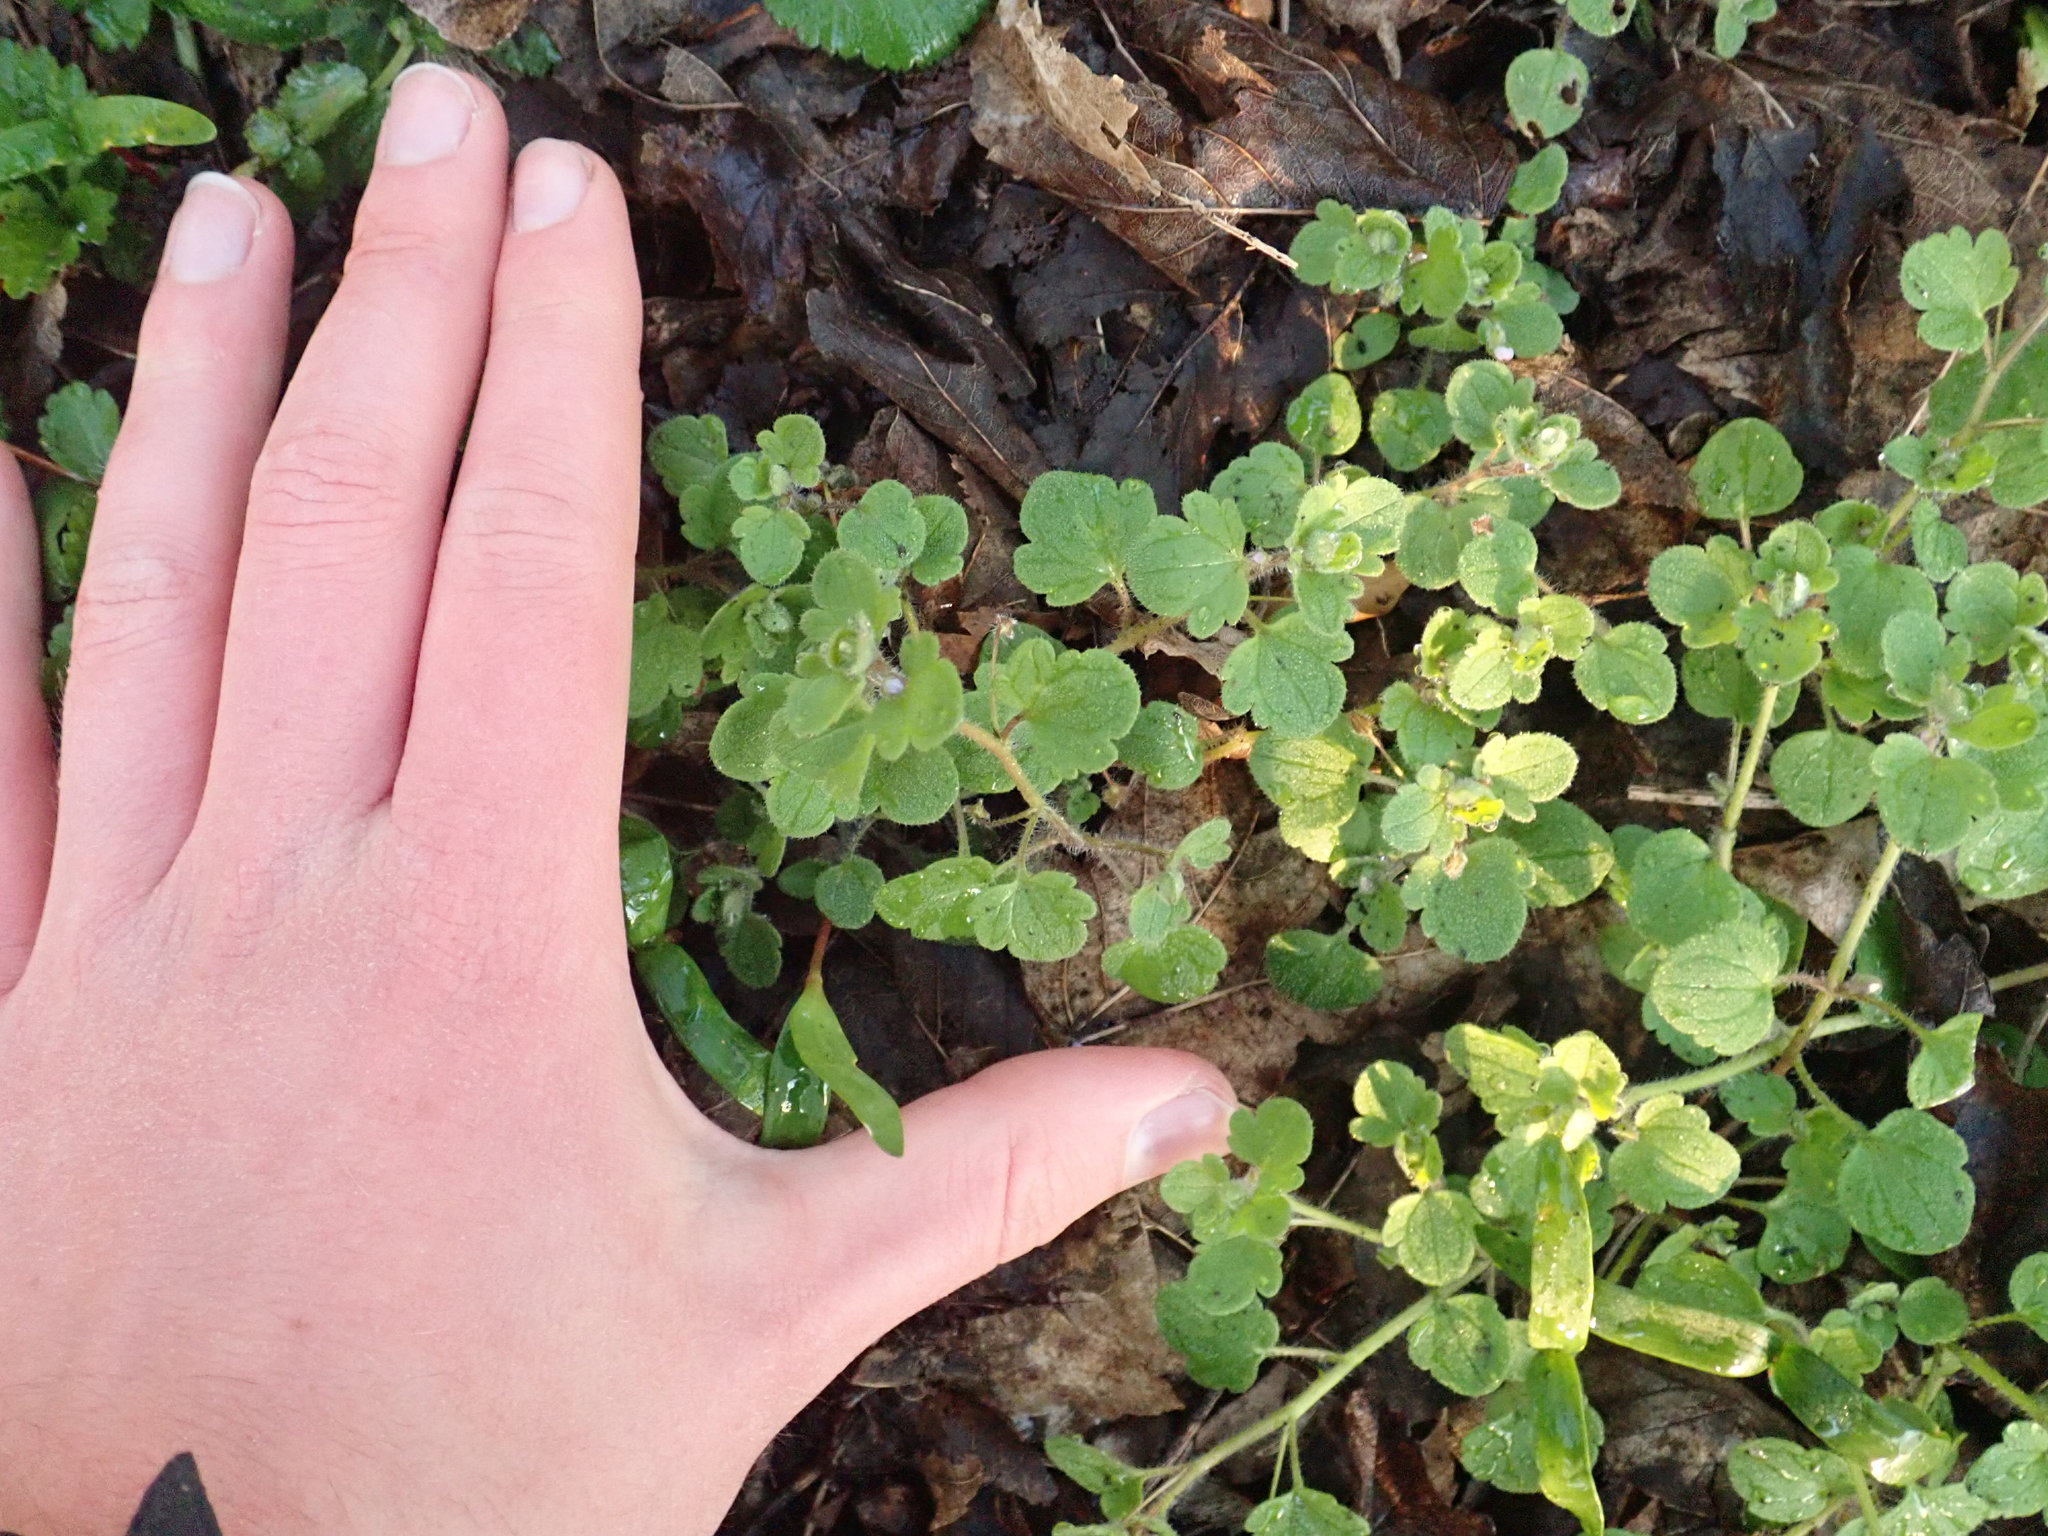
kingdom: Plantae
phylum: Tracheophyta
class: Magnoliopsida
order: Lamiales
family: Plantaginaceae
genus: Veronica
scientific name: Veronica hederifolia
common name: Ivy-leaved speedwell
